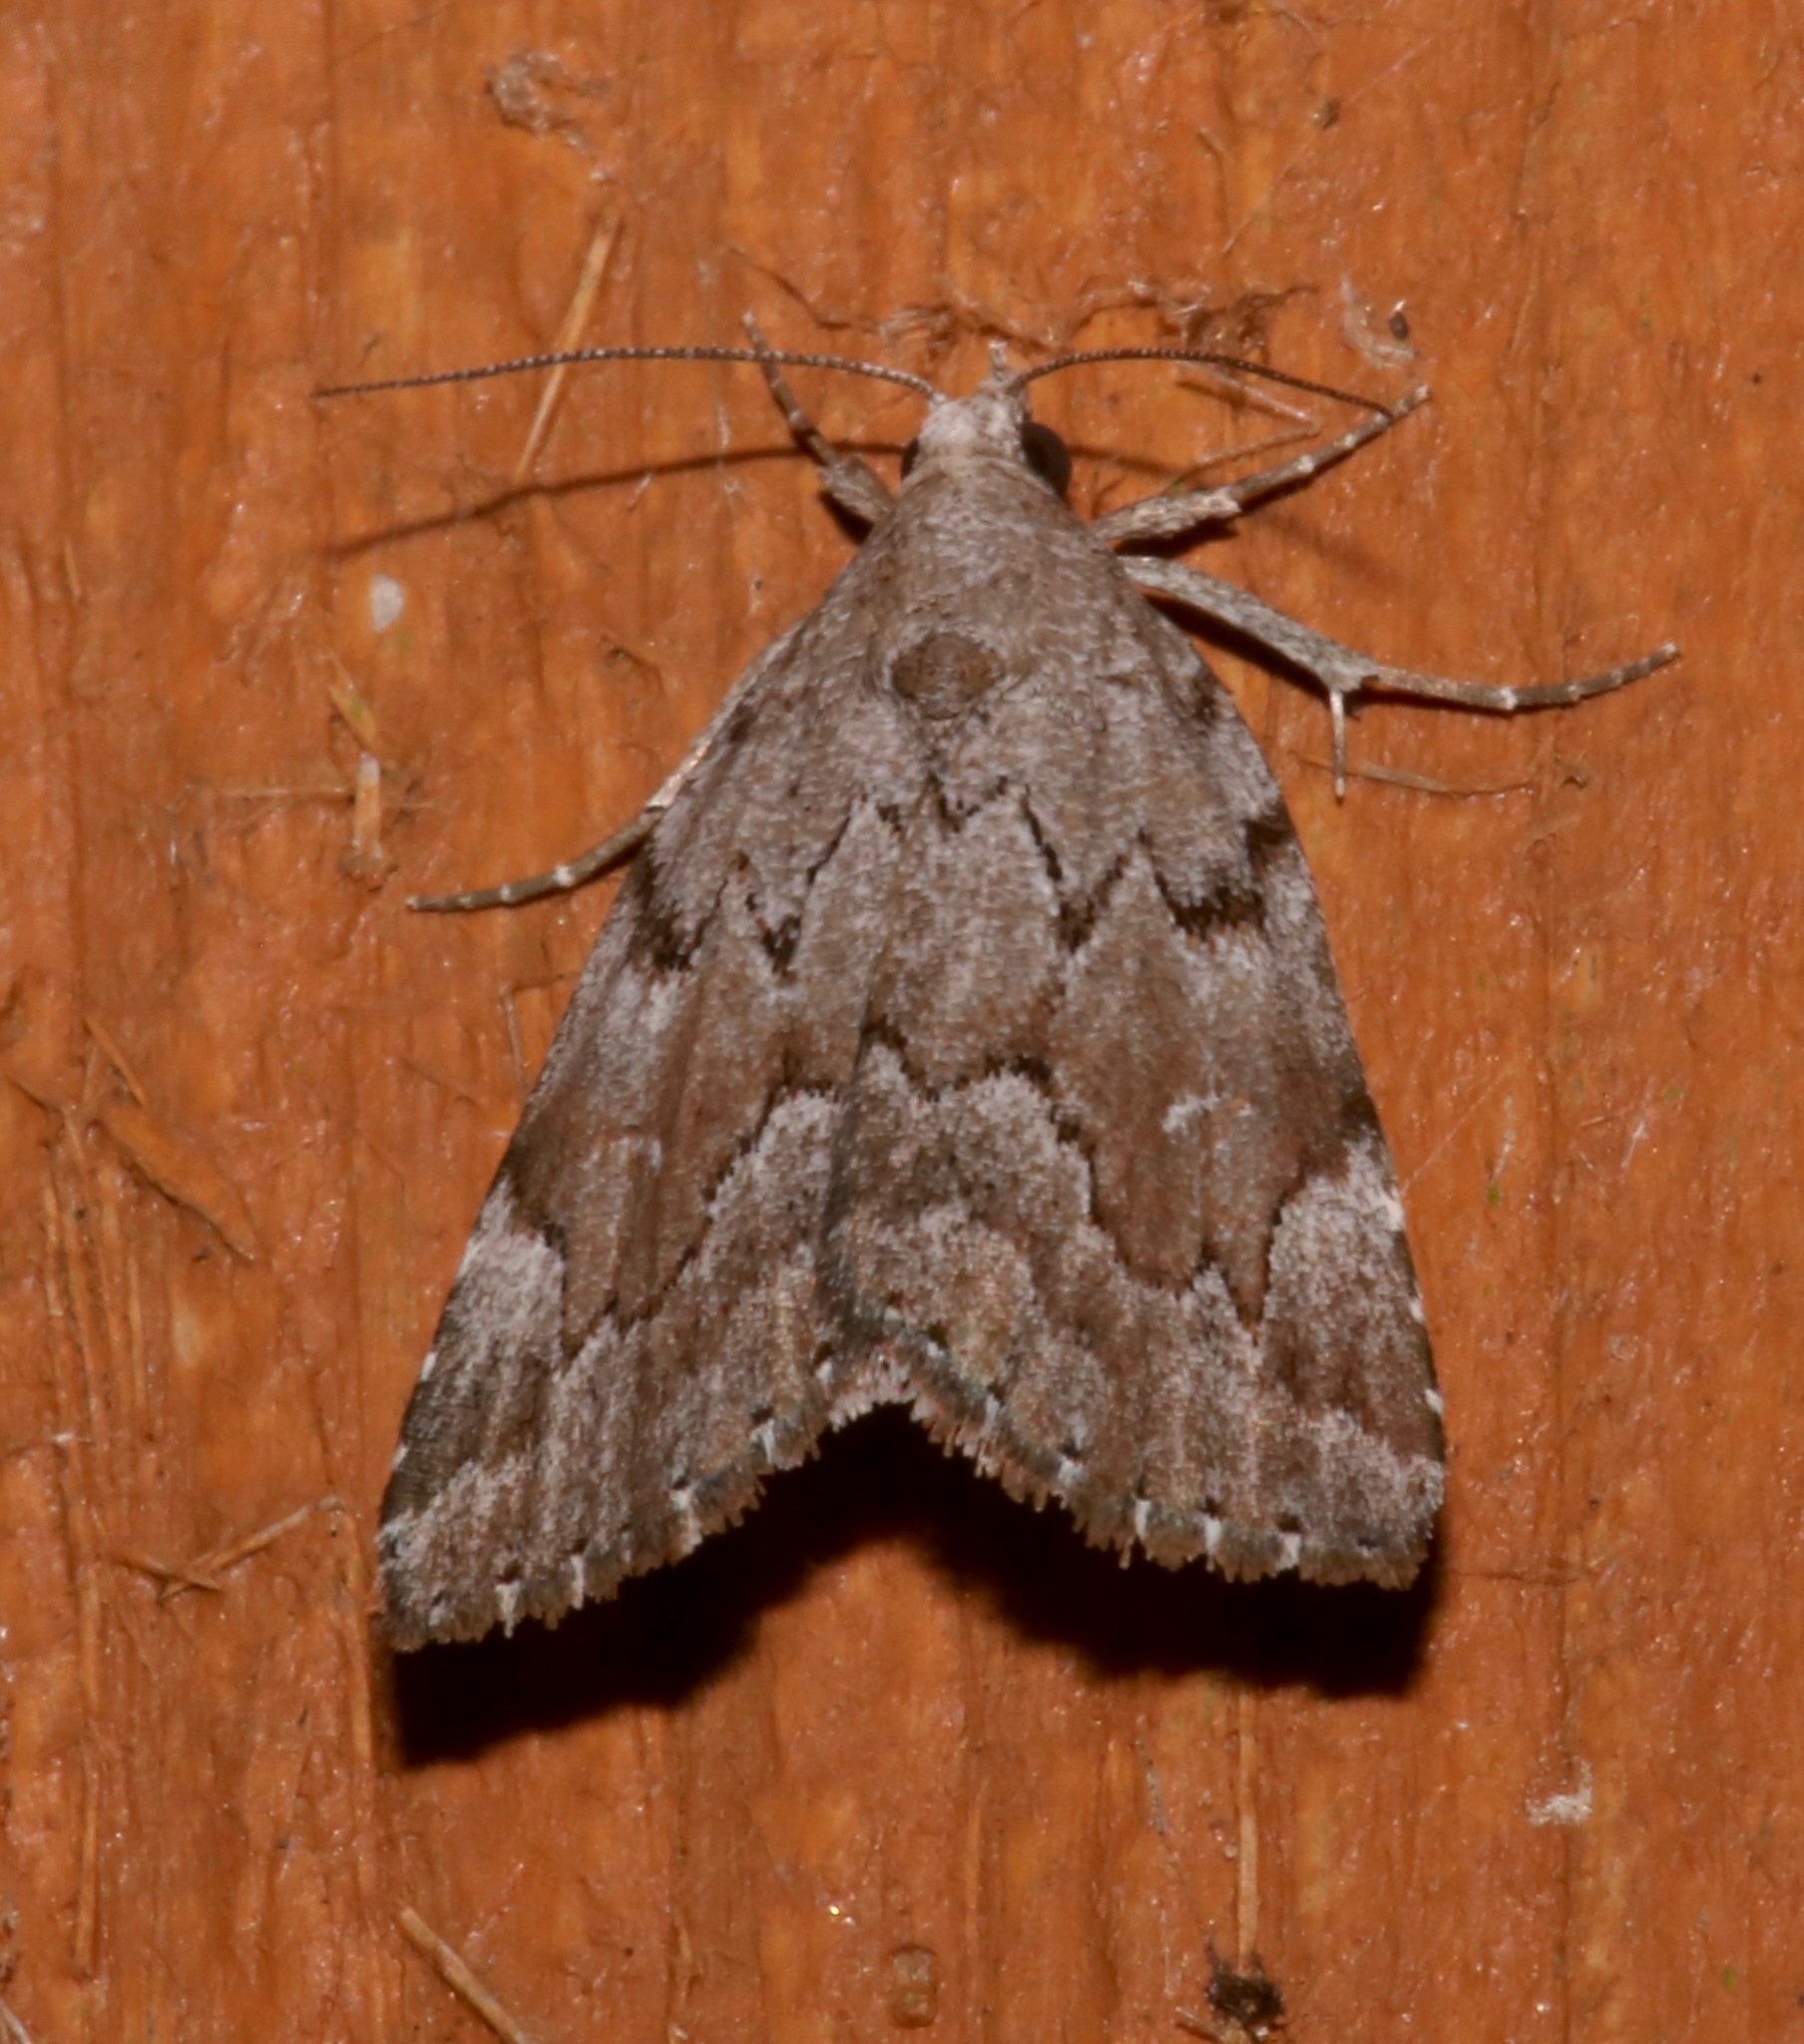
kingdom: Animalia
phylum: Arthropoda
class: Insecta
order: Lepidoptera
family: Erebidae
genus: Cutina
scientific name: Cutina albopunctella
